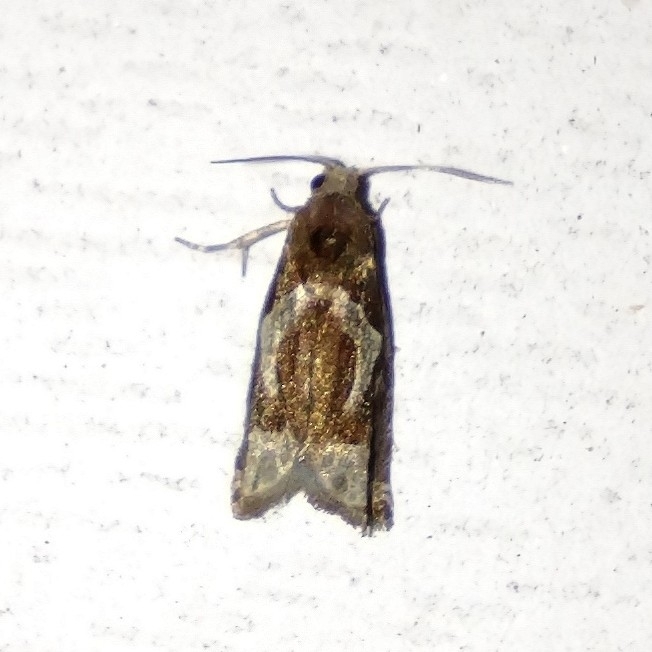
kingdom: Animalia
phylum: Arthropoda
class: Insecta
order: Lepidoptera
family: Tortricidae
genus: Epiblema
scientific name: Epiblema foenella
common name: White-foot bell
